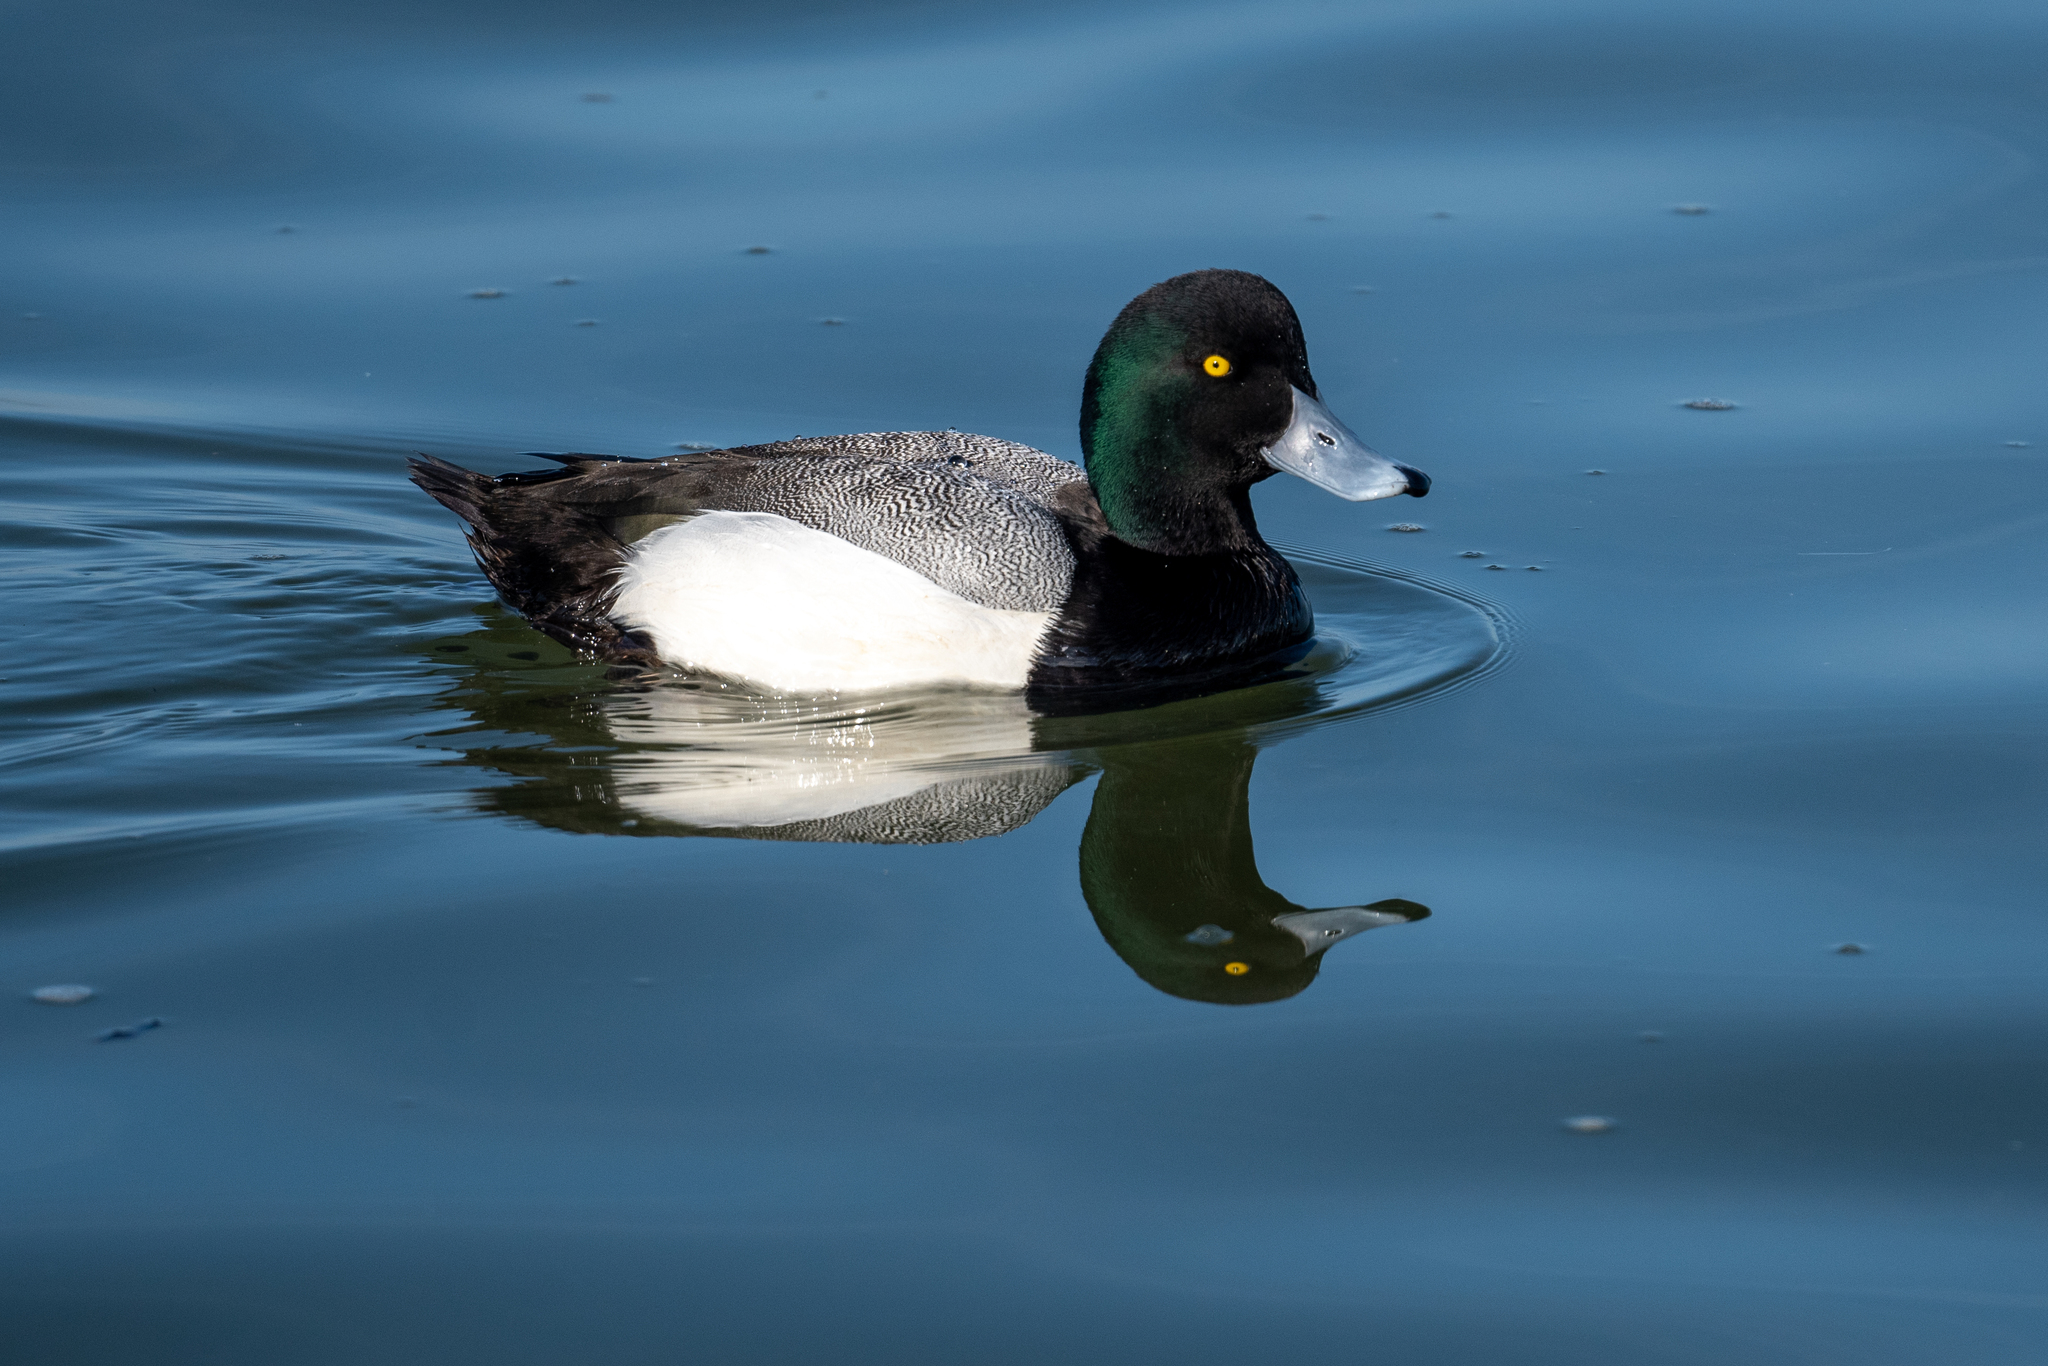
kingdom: Animalia
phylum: Chordata
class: Aves
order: Anseriformes
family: Anatidae
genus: Aythya
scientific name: Aythya marila
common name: Greater scaup
